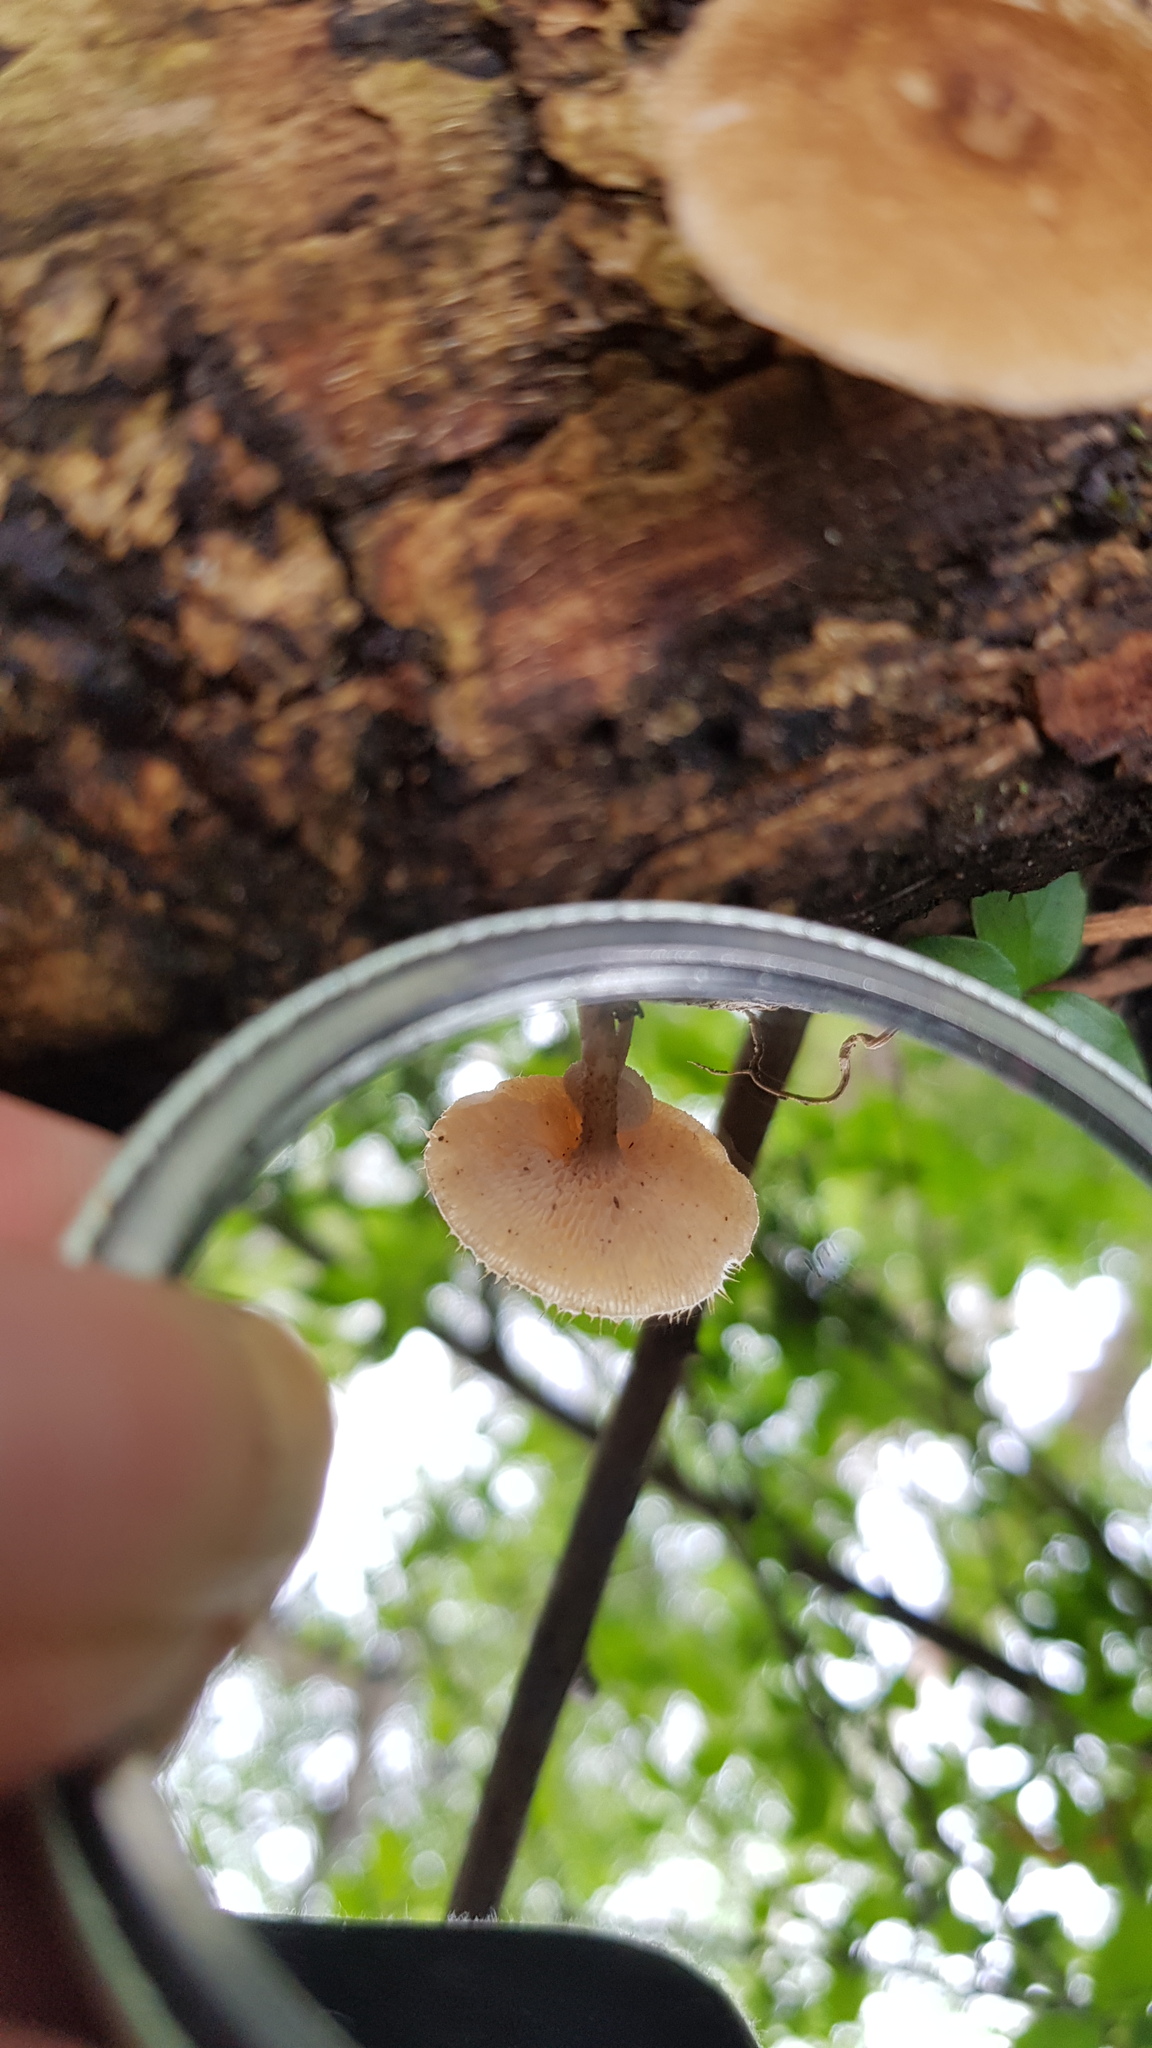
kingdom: Fungi
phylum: Basidiomycota
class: Agaricomycetes
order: Polyporales
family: Polyporaceae
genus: Lentinus
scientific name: Lentinus arcularius
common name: Spring polypore
